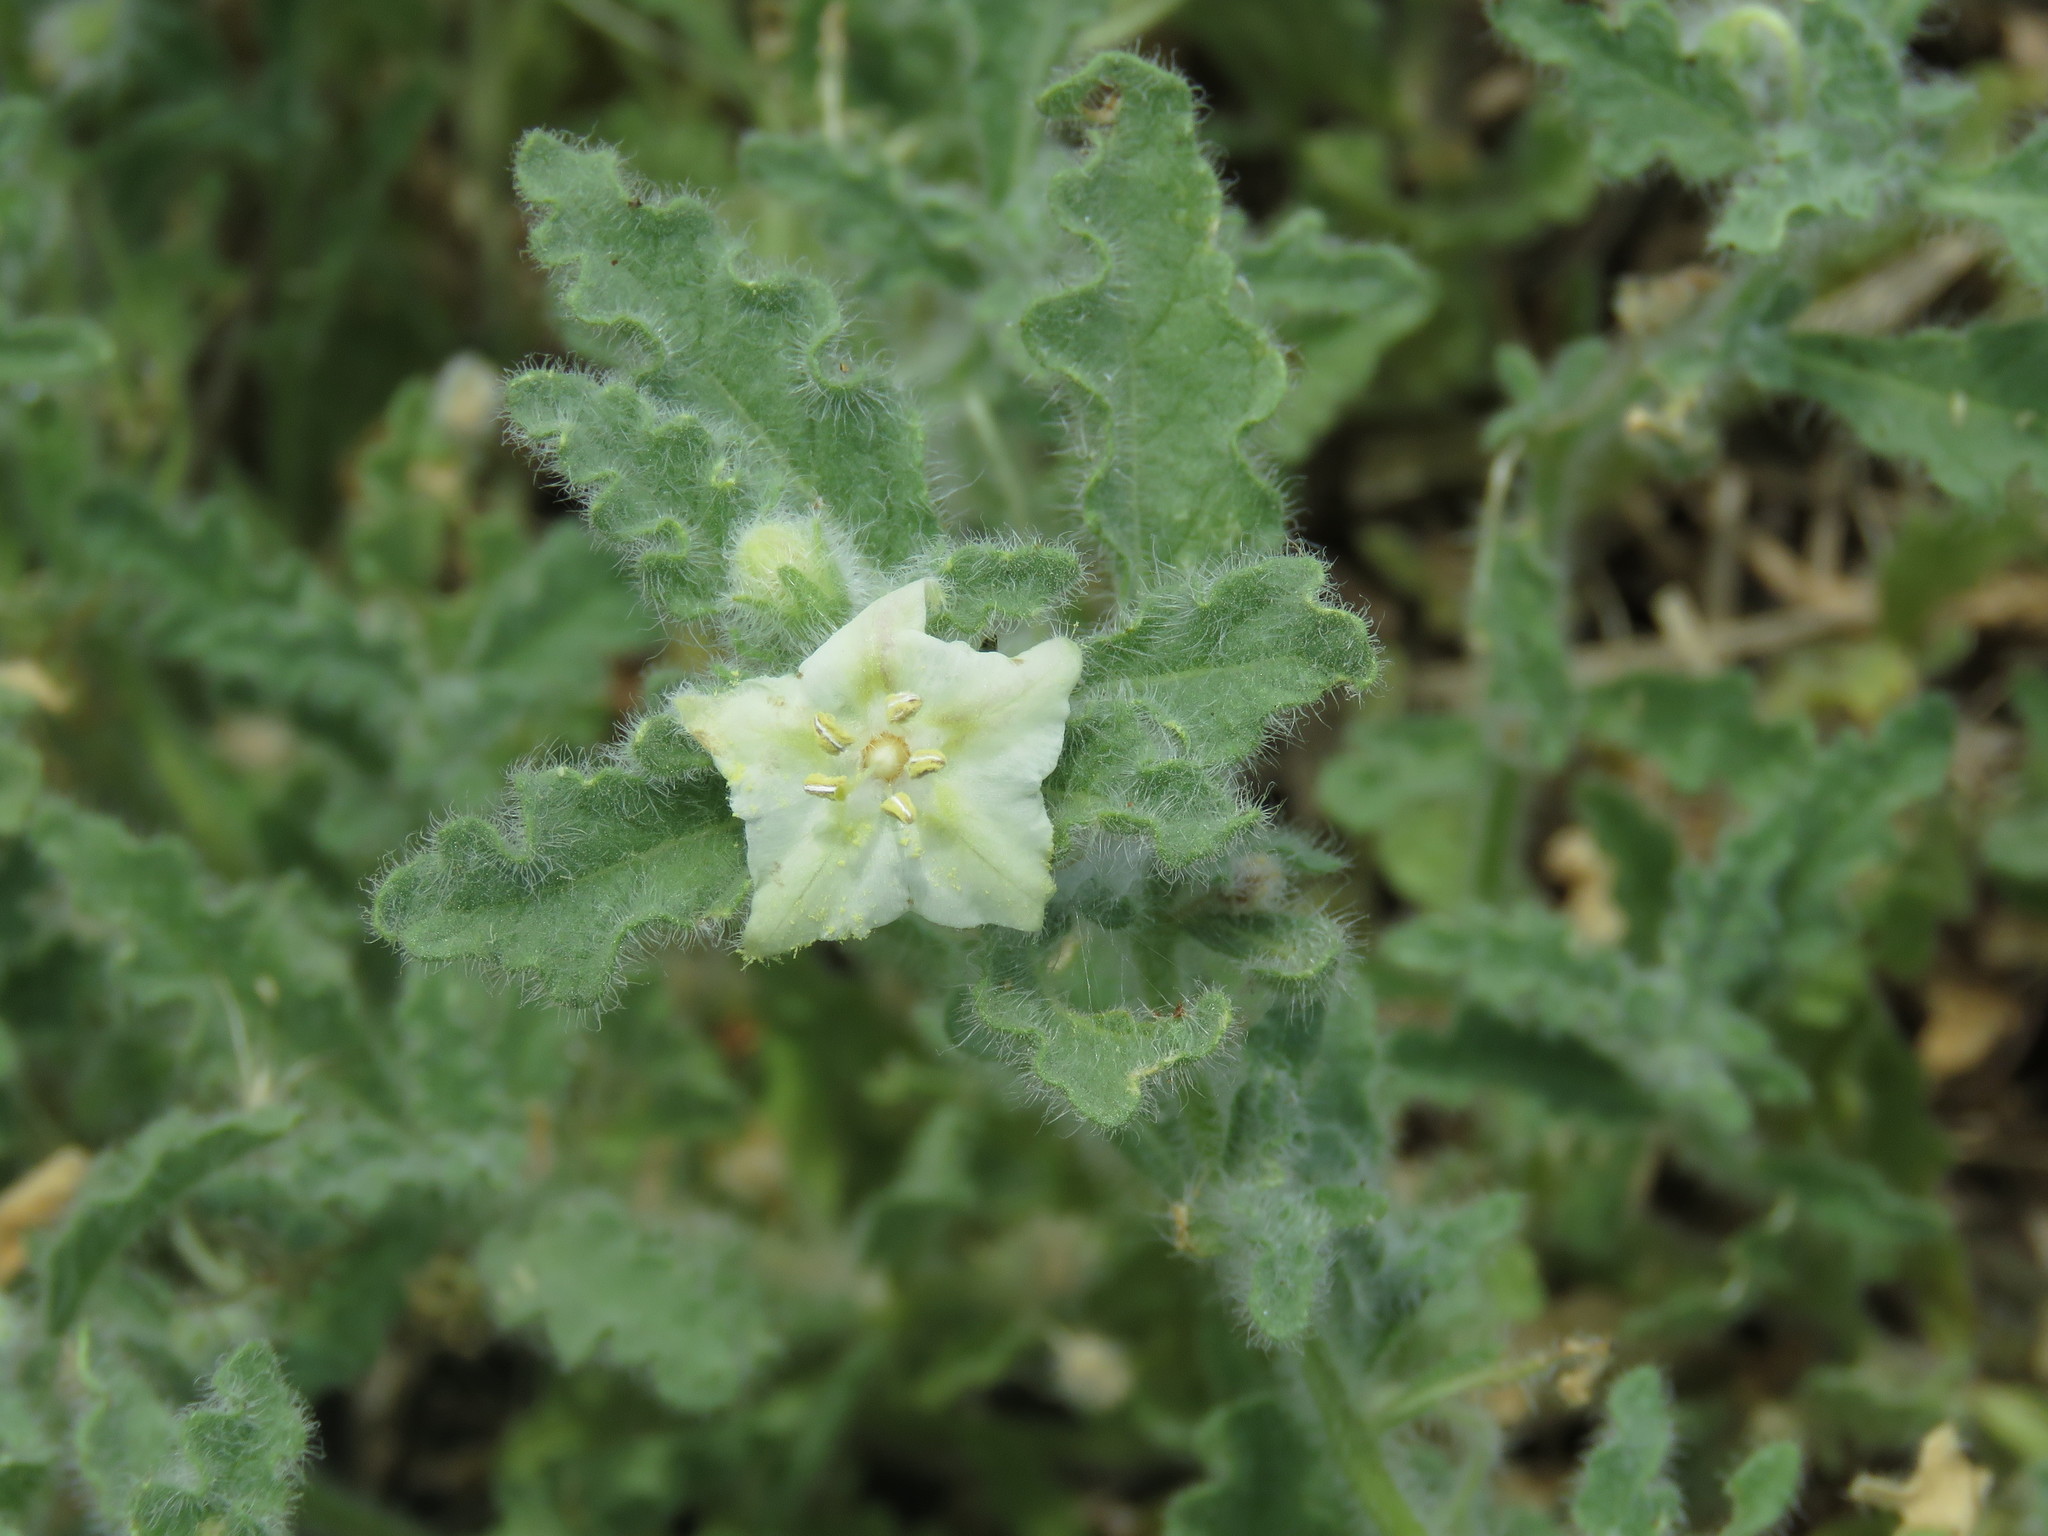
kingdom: Plantae
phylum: Tracheophyta
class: Magnoliopsida
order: Solanales
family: Solanaceae
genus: Chamaesaracha
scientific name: Chamaesaracha villosa
